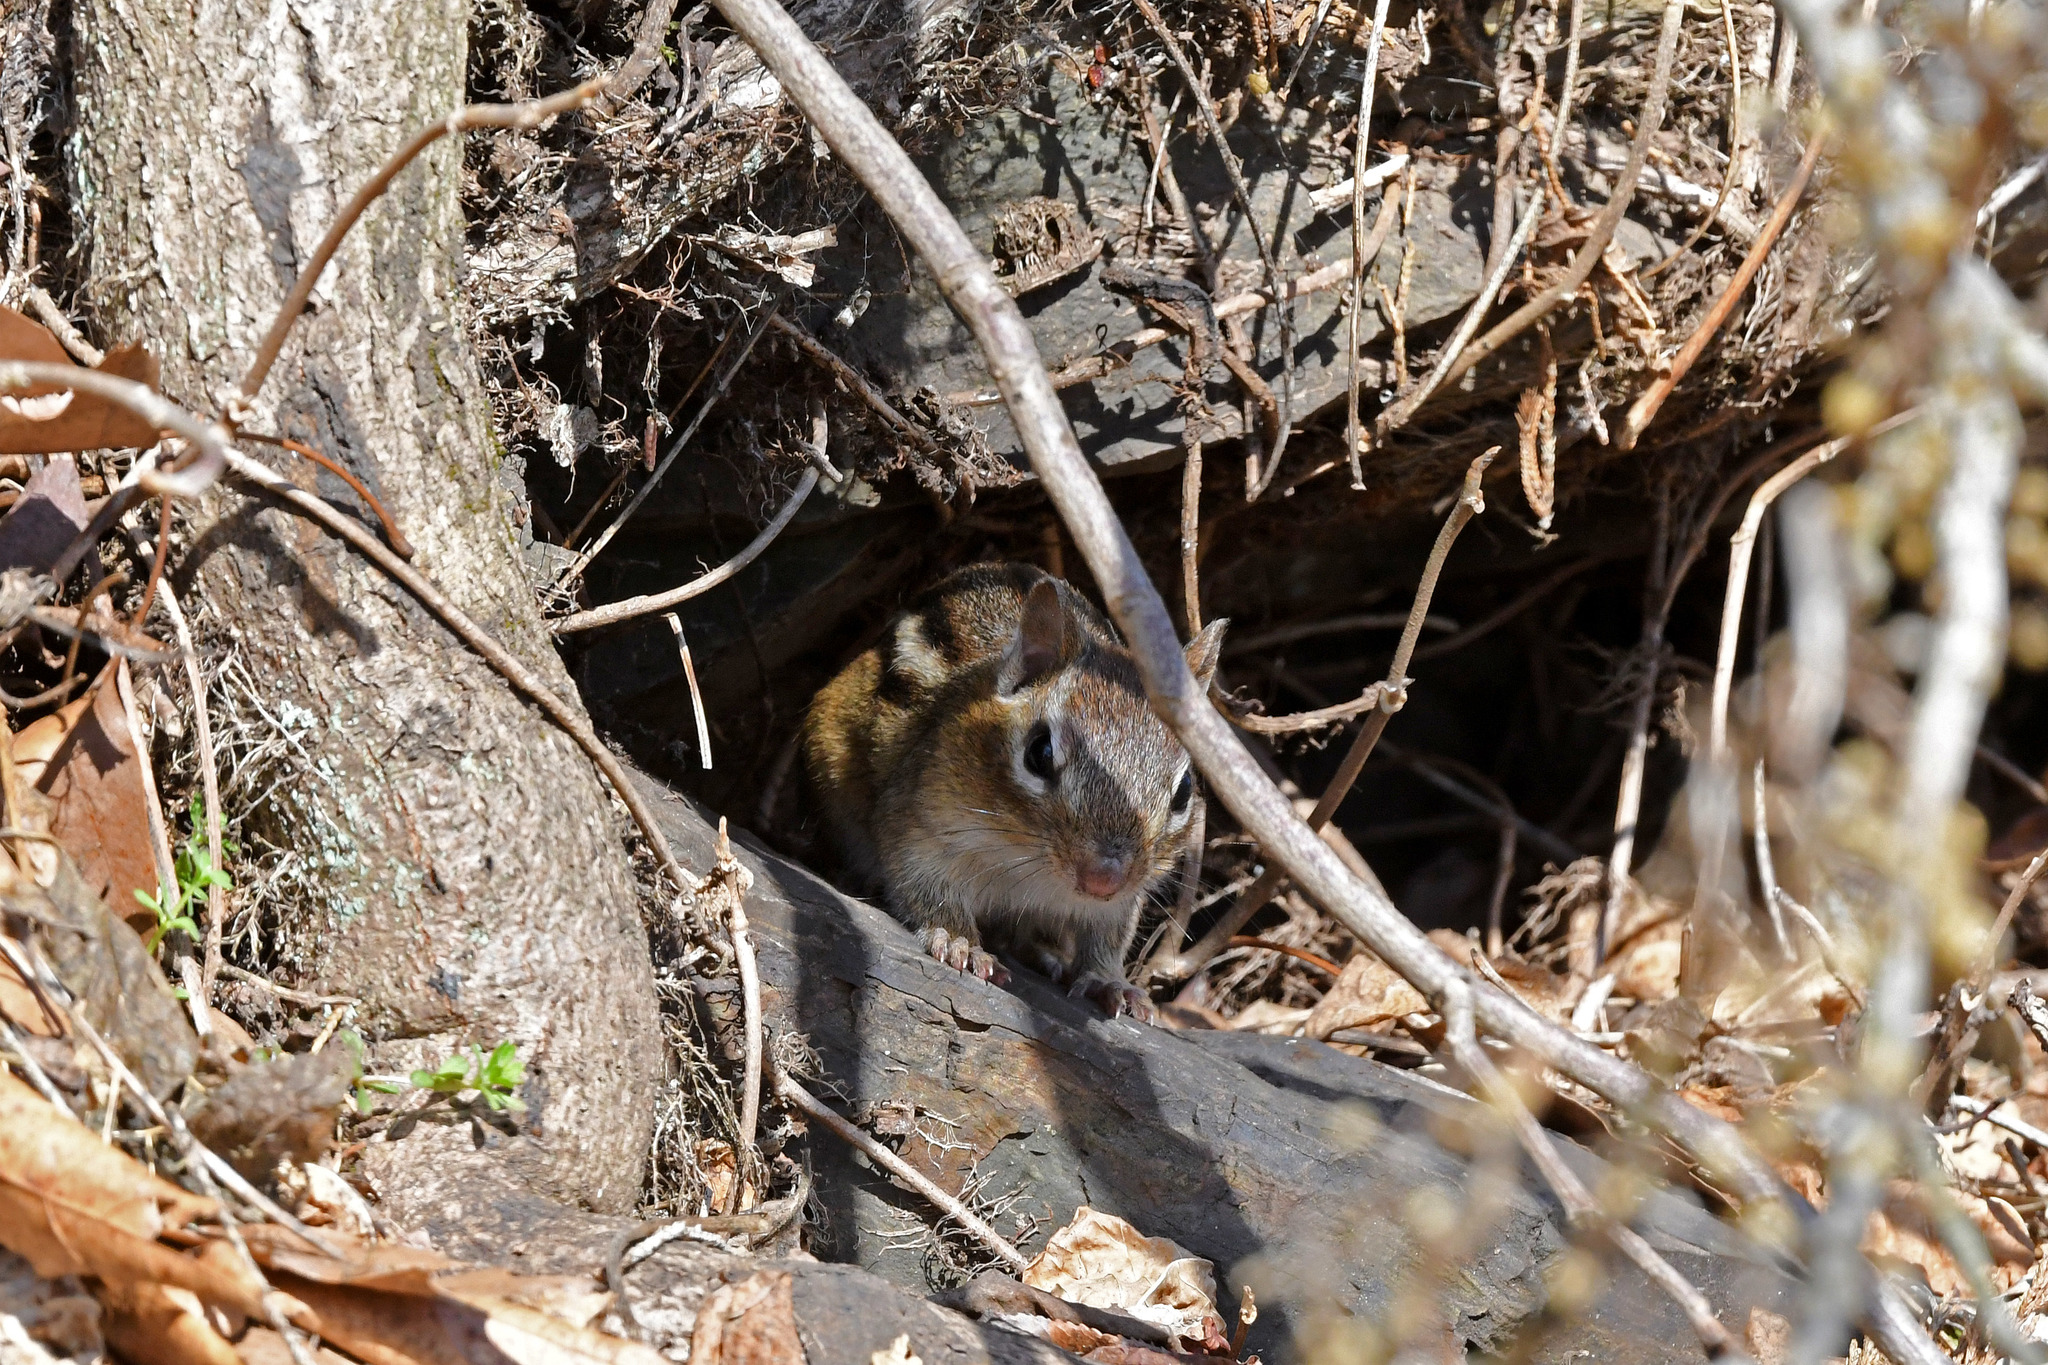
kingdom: Animalia
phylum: Chordata
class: Mammalia
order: Rodentia
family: Sciuridae
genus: Tamias
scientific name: Tamias striatus
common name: Eastern chipmunk
